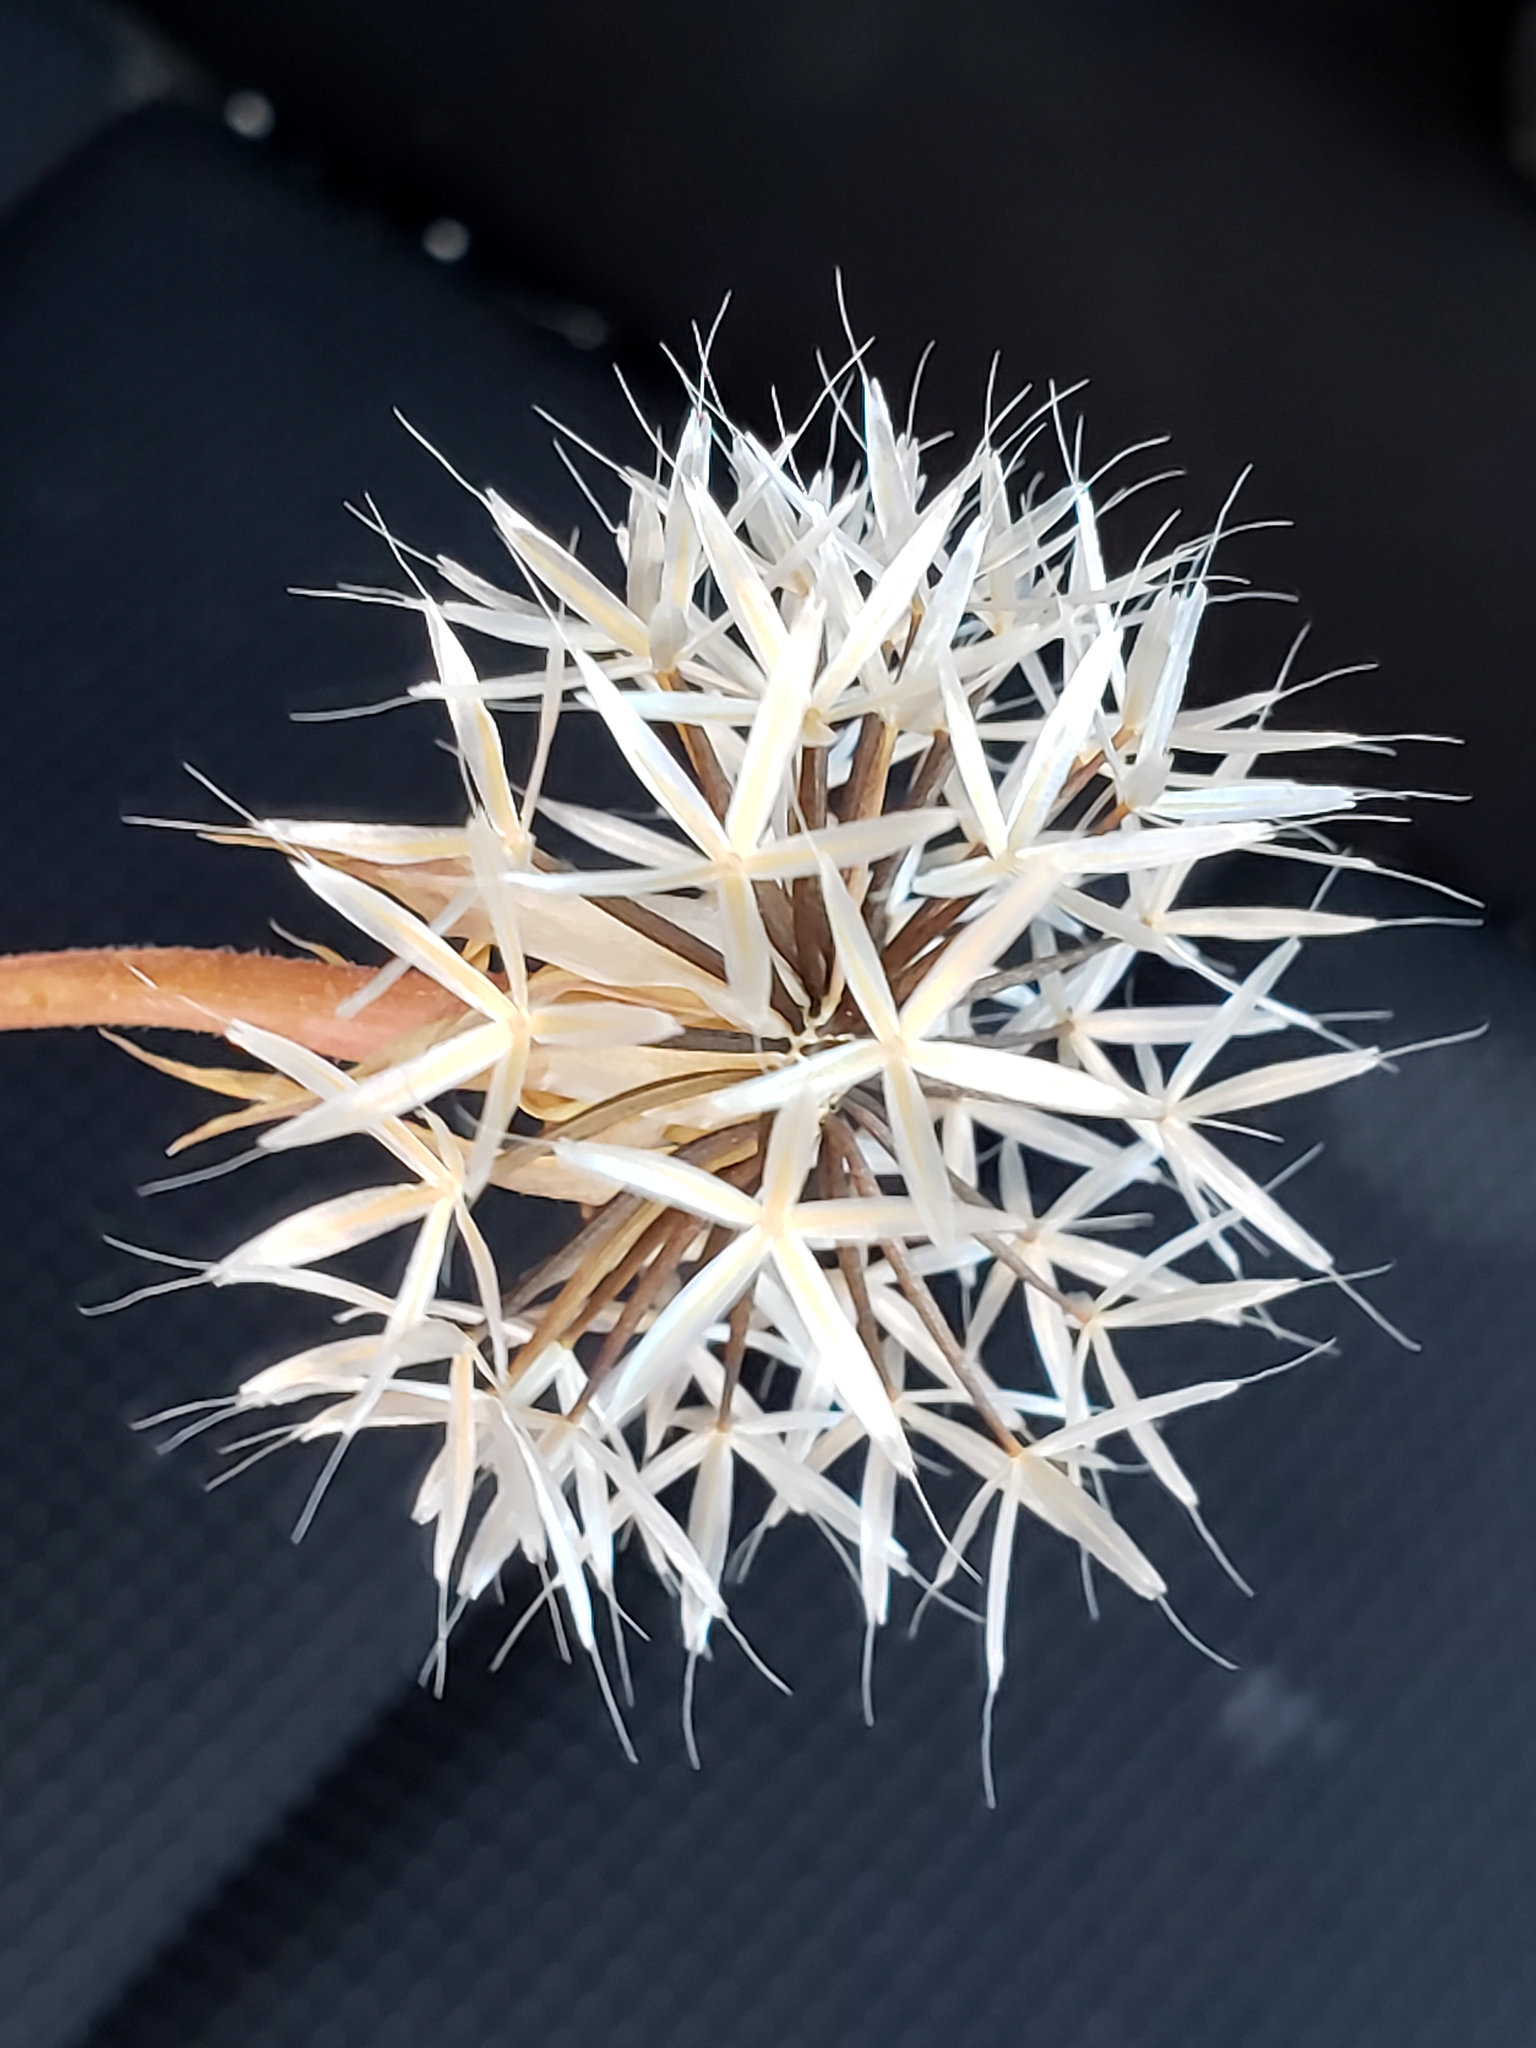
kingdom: Plantae
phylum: Tracheophyta
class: Magnoliopsida
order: Asterales
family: Asteraceae
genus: Microseris
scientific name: Microseris lindleyi
